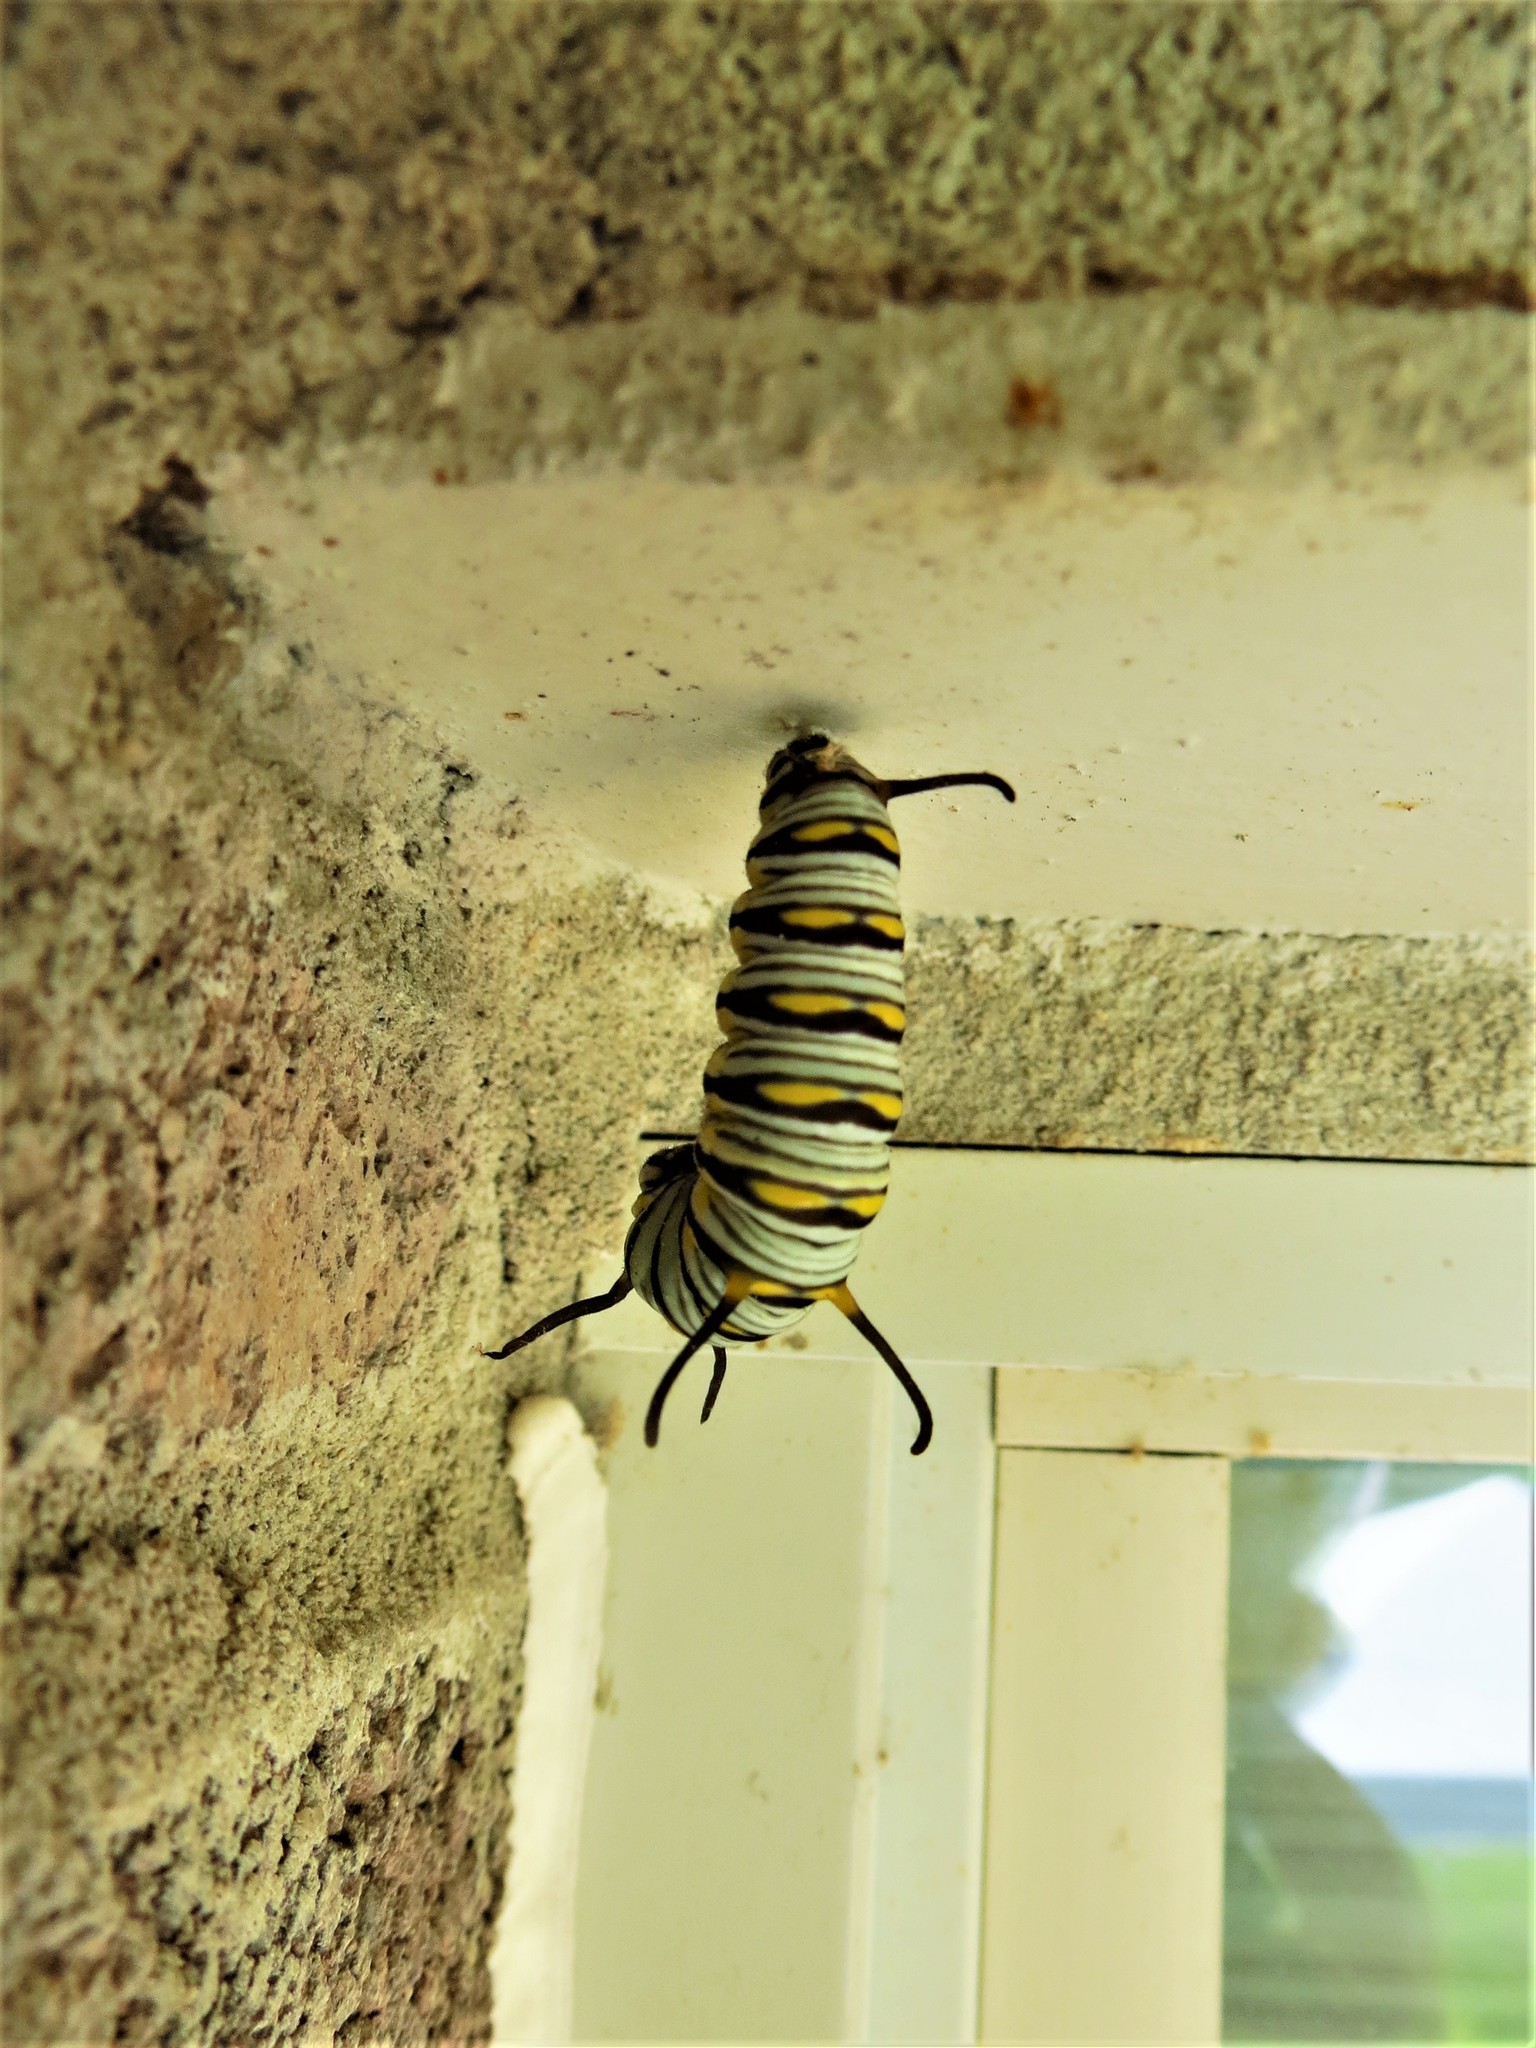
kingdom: Animalia
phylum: Arthropoda
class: Insecta
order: Lepidoptera
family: Nymphalidae
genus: Danaus
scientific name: Danaus gilippus
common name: Queen
